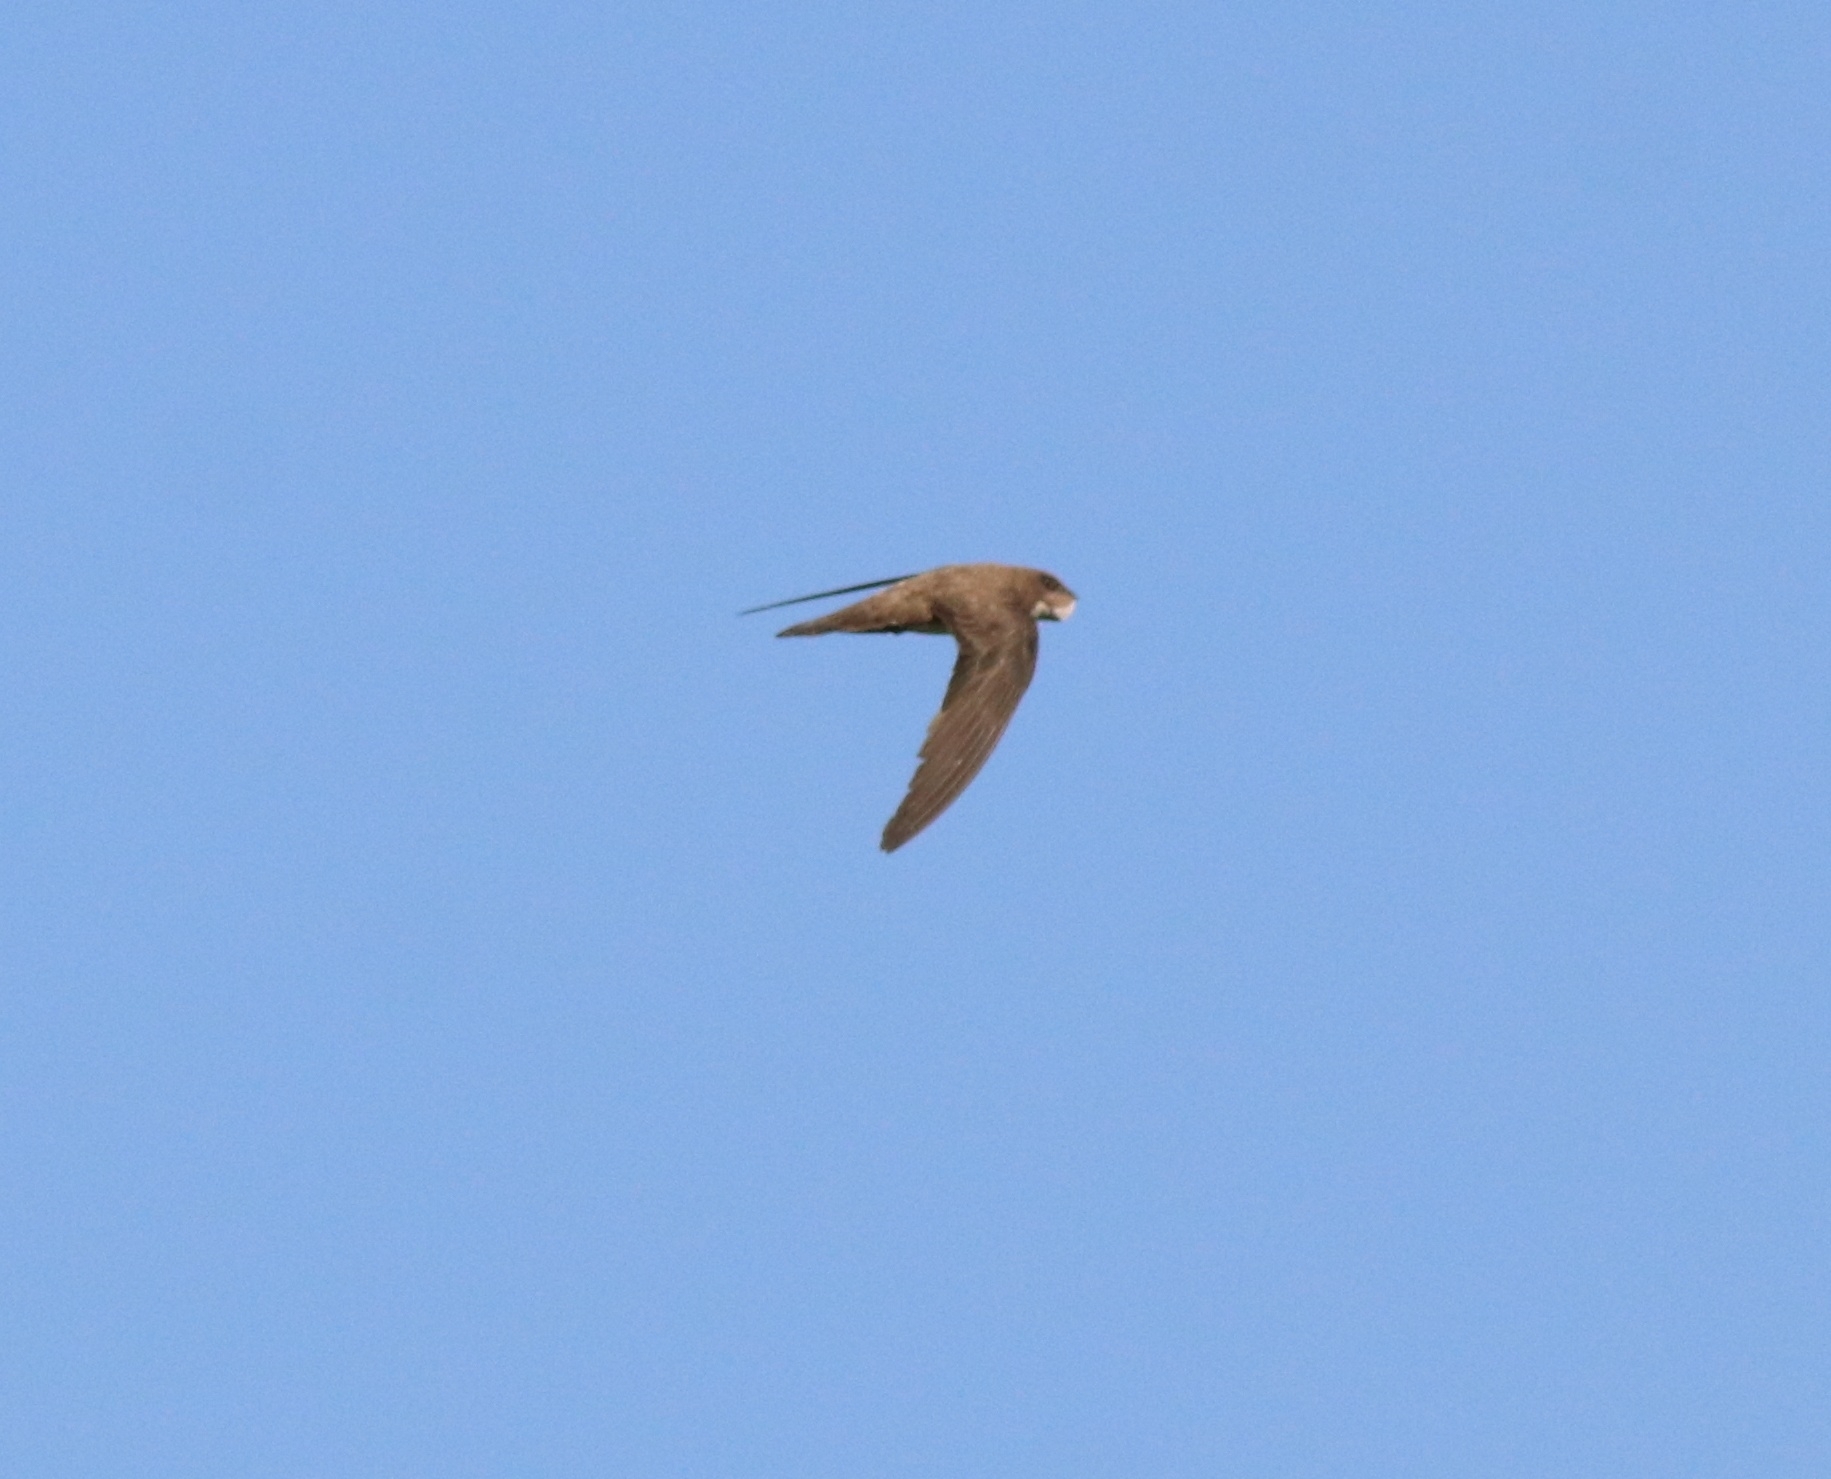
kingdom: Animalia
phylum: Chordata
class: Aves
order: Apodiformes
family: Apodidae
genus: Tachymarptis
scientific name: Tachymarptis melba
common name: Alpine swift
